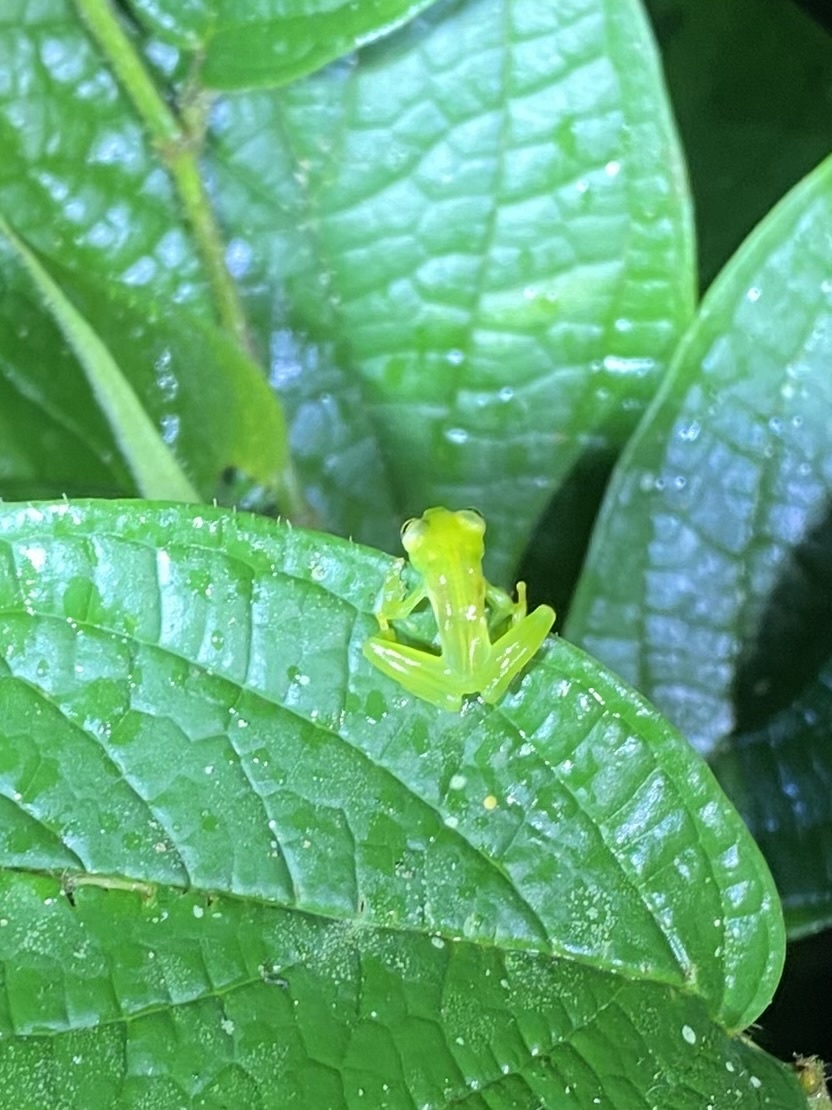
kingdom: Animalia
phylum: Chordata
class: Amphibia
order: Anura
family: Centrolenidae
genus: Teratohyla
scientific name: Teratohyla spinosa
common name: Spiny cochran frog
